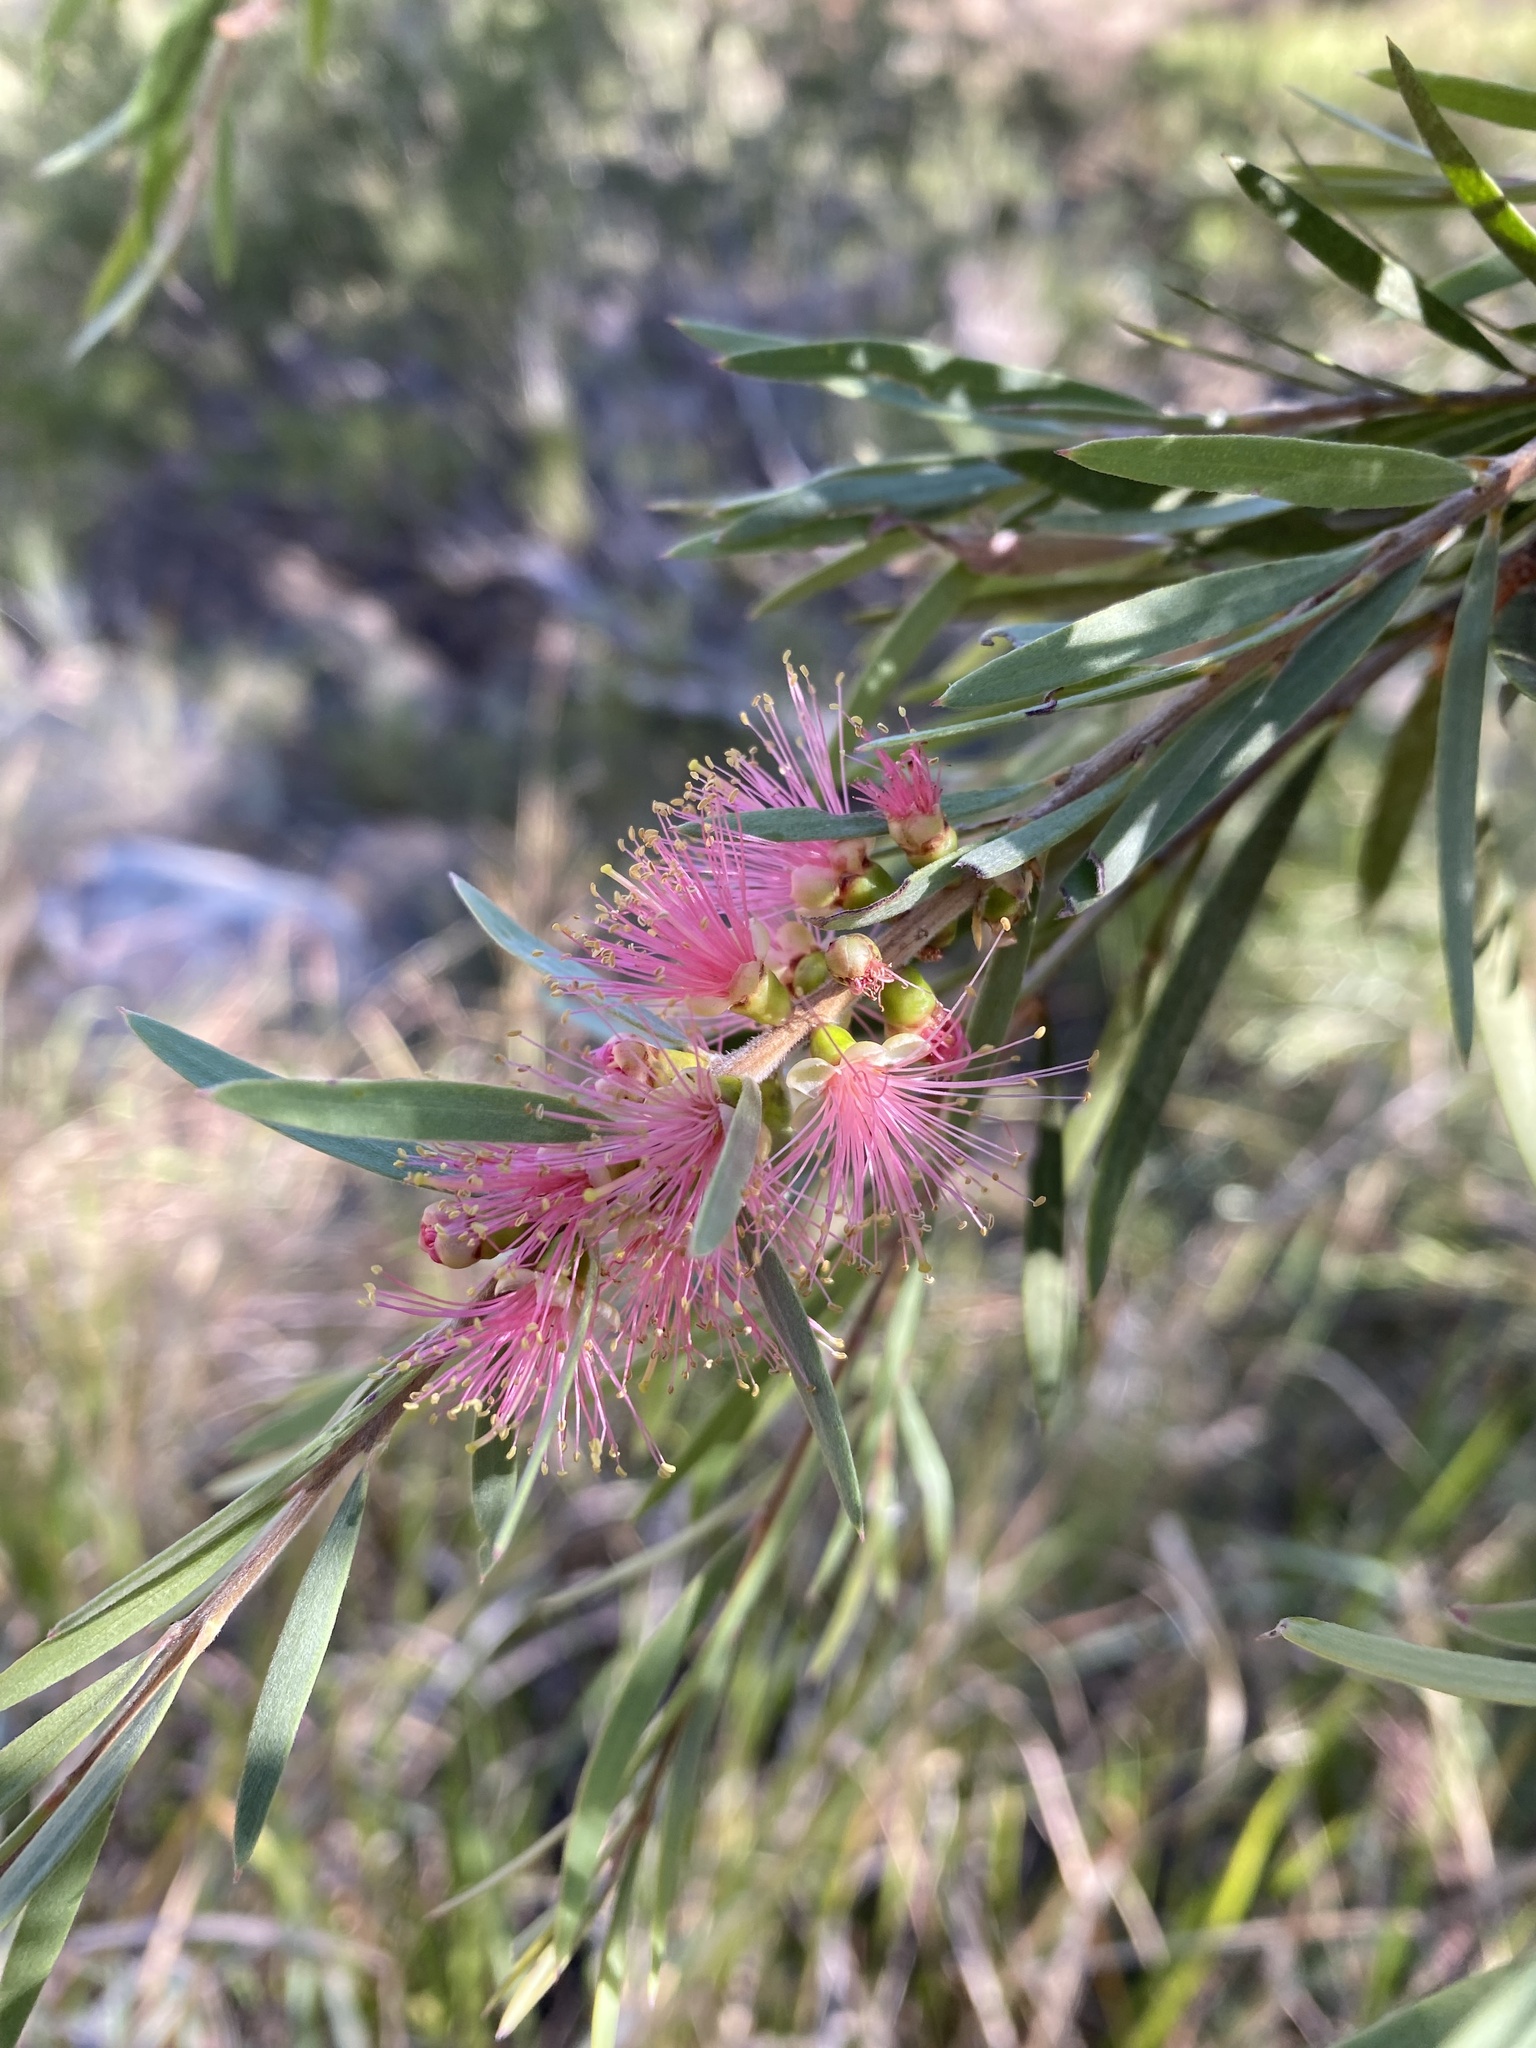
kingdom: Plantae
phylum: Tracheophyta
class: Magnoliopsida
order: Myrtales
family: Myrtaceae
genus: Callistemon
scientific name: Callistemon quercinus
